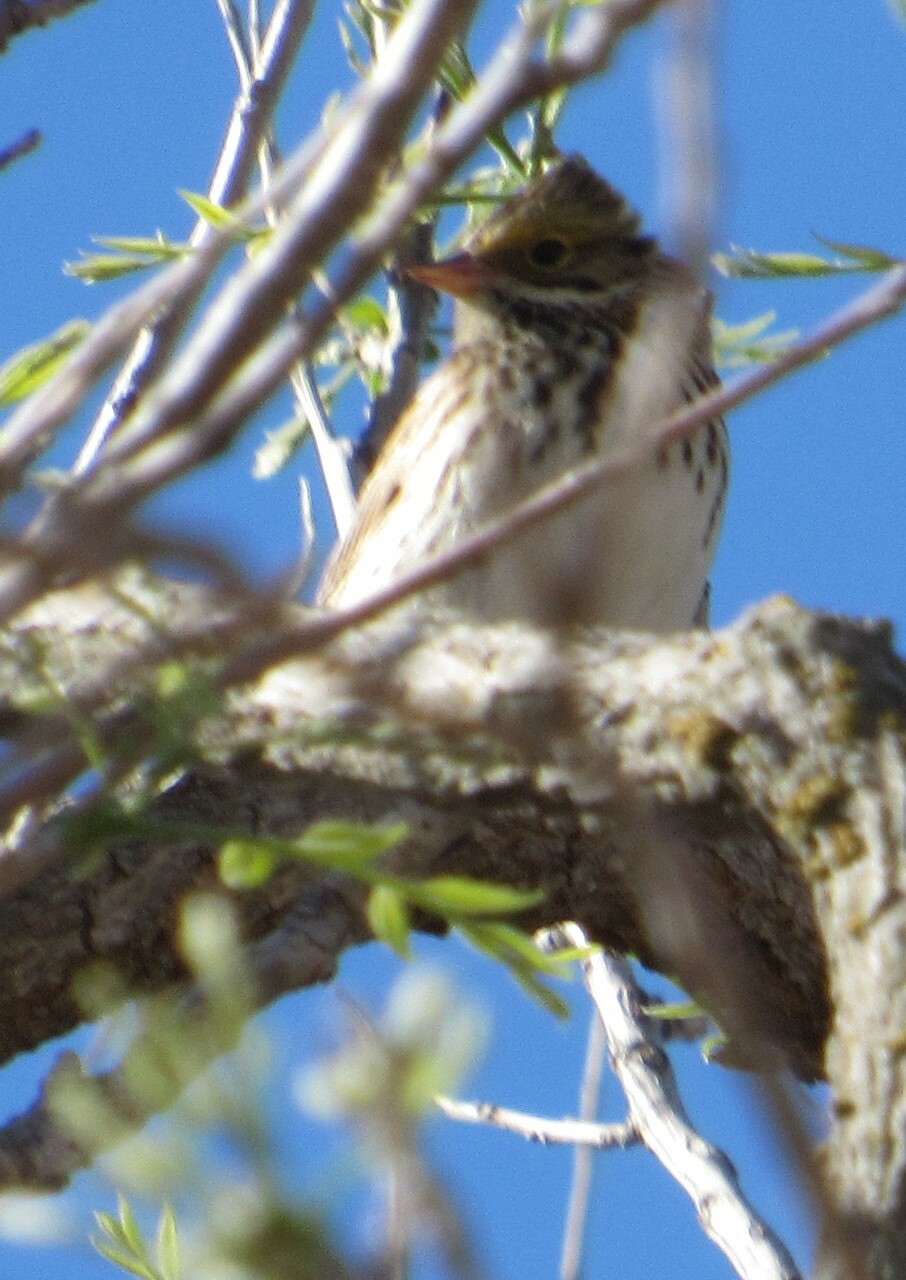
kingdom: Animalia
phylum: Chordata
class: Aves
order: Passeriformes
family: Passerellidae
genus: Passerculus
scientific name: Passerculus sandwichensis
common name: Savannah sparrow
